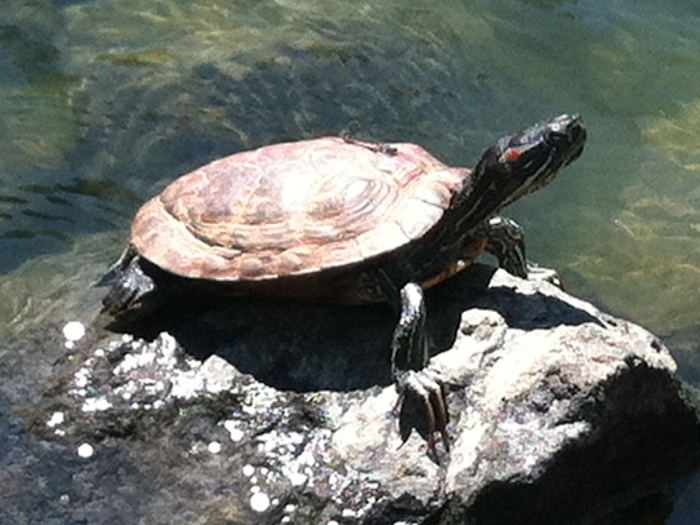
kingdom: Animalia
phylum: Chordata
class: Testudines
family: Emydidae
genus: Trachemys
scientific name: Trachemys scripta
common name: Slider
